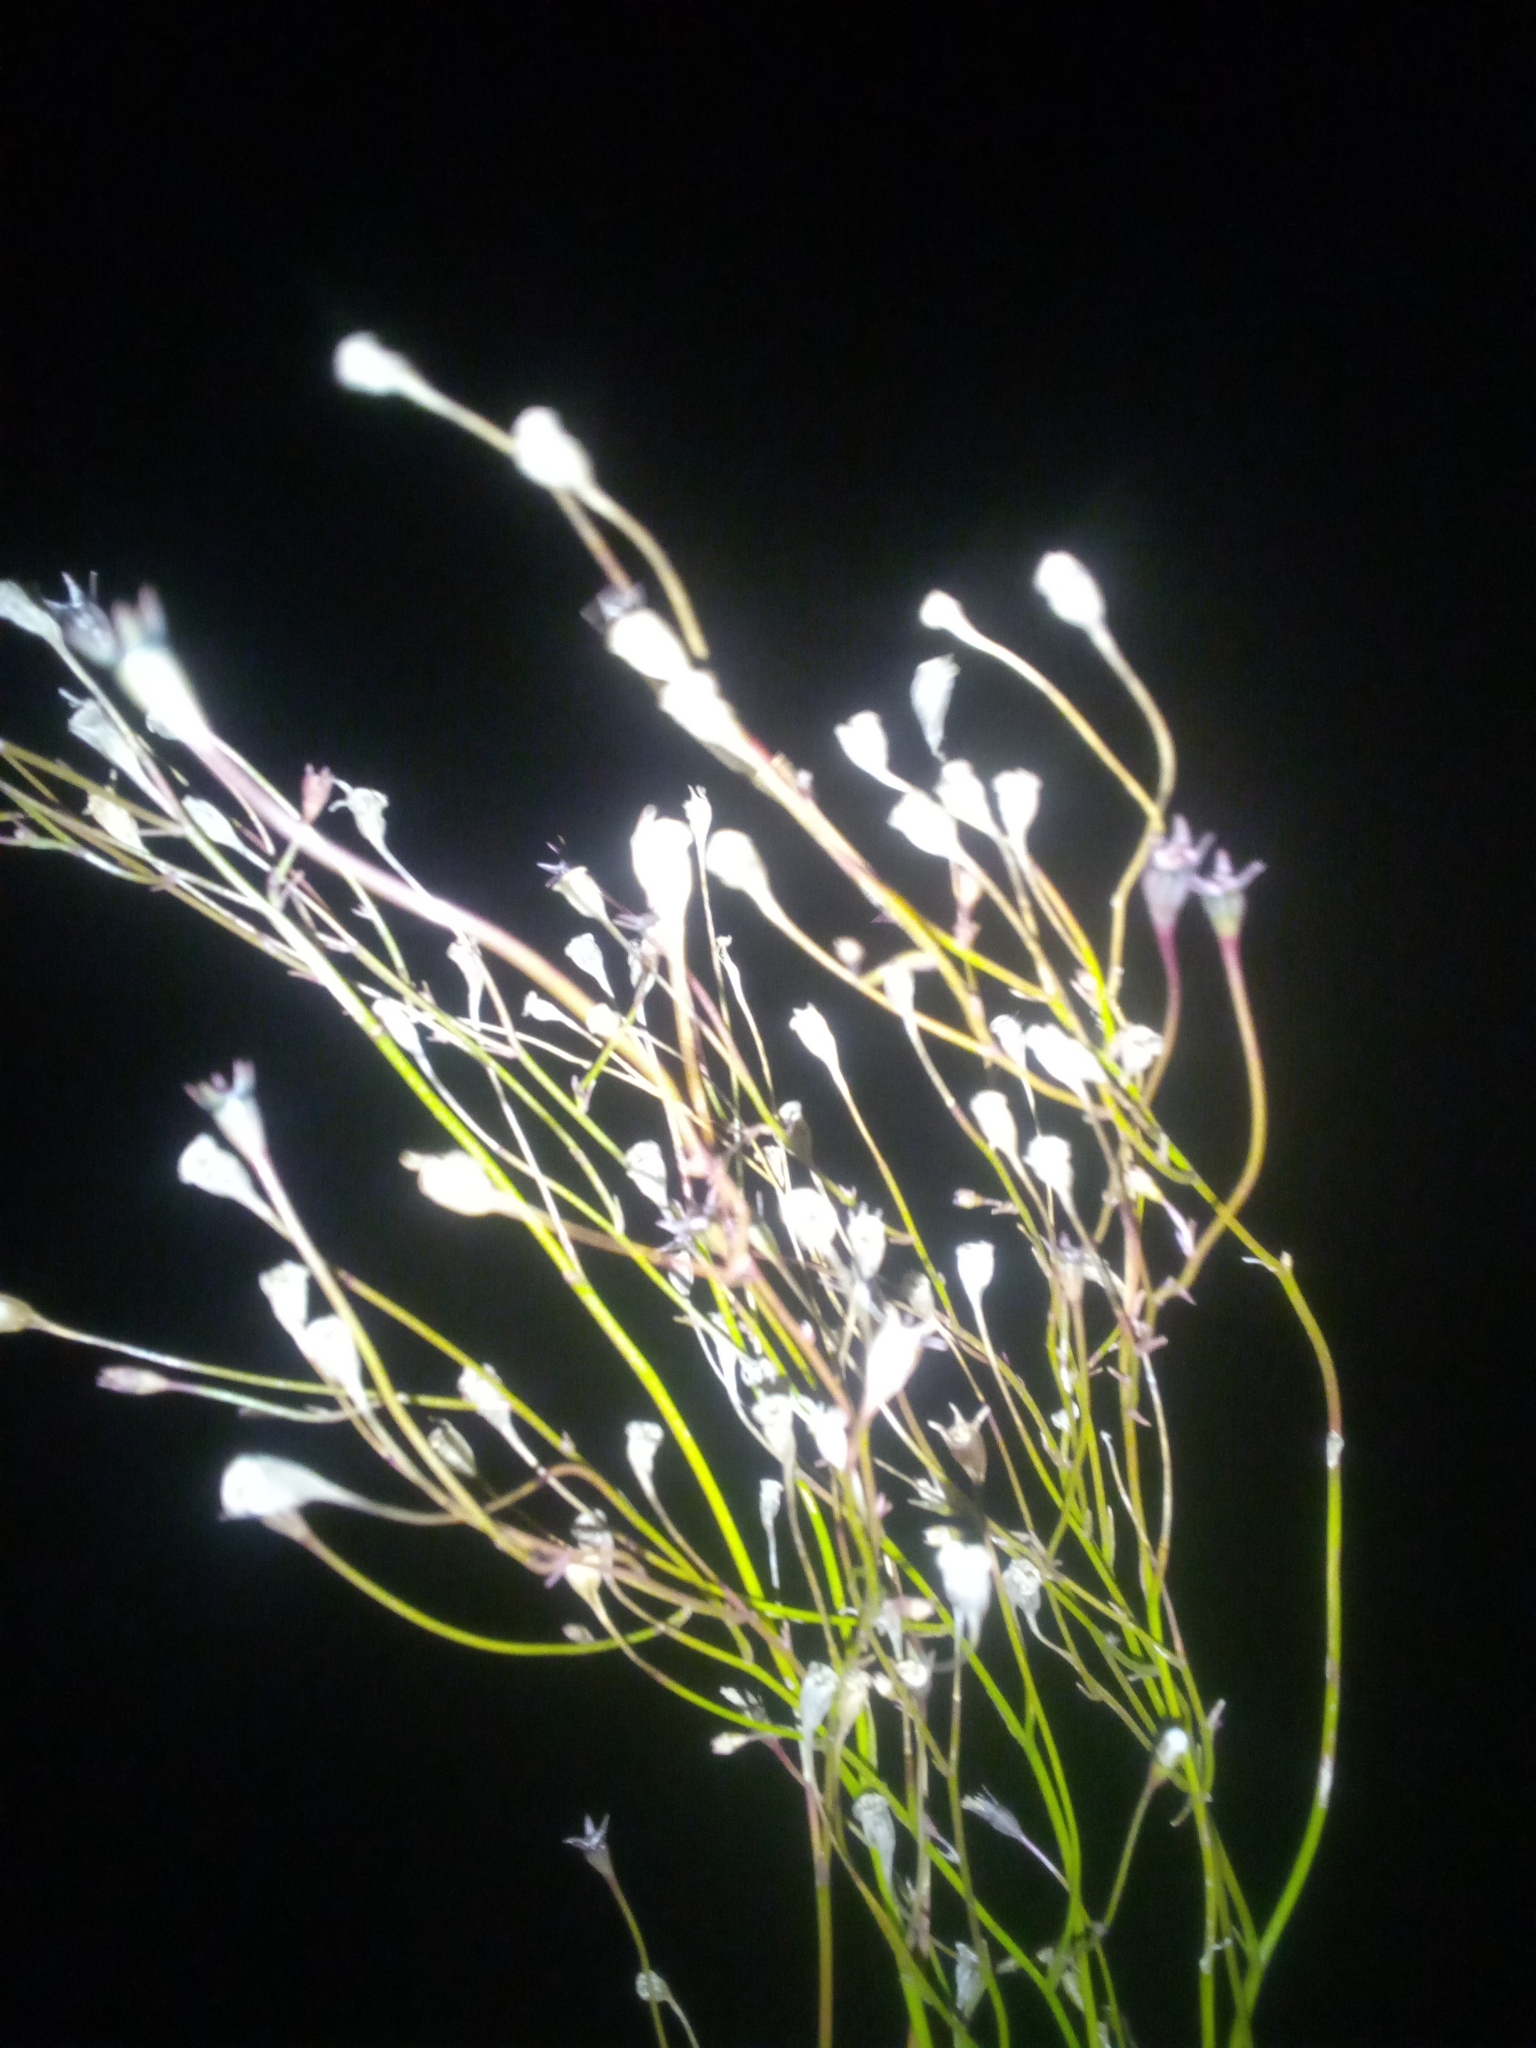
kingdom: Plantae
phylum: Tracheophyta
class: Magnoliopsida
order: Asterales
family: Campanulaceae
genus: Wahlenbergia
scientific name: Wahlenbergia marginata
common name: Southern rockbell
